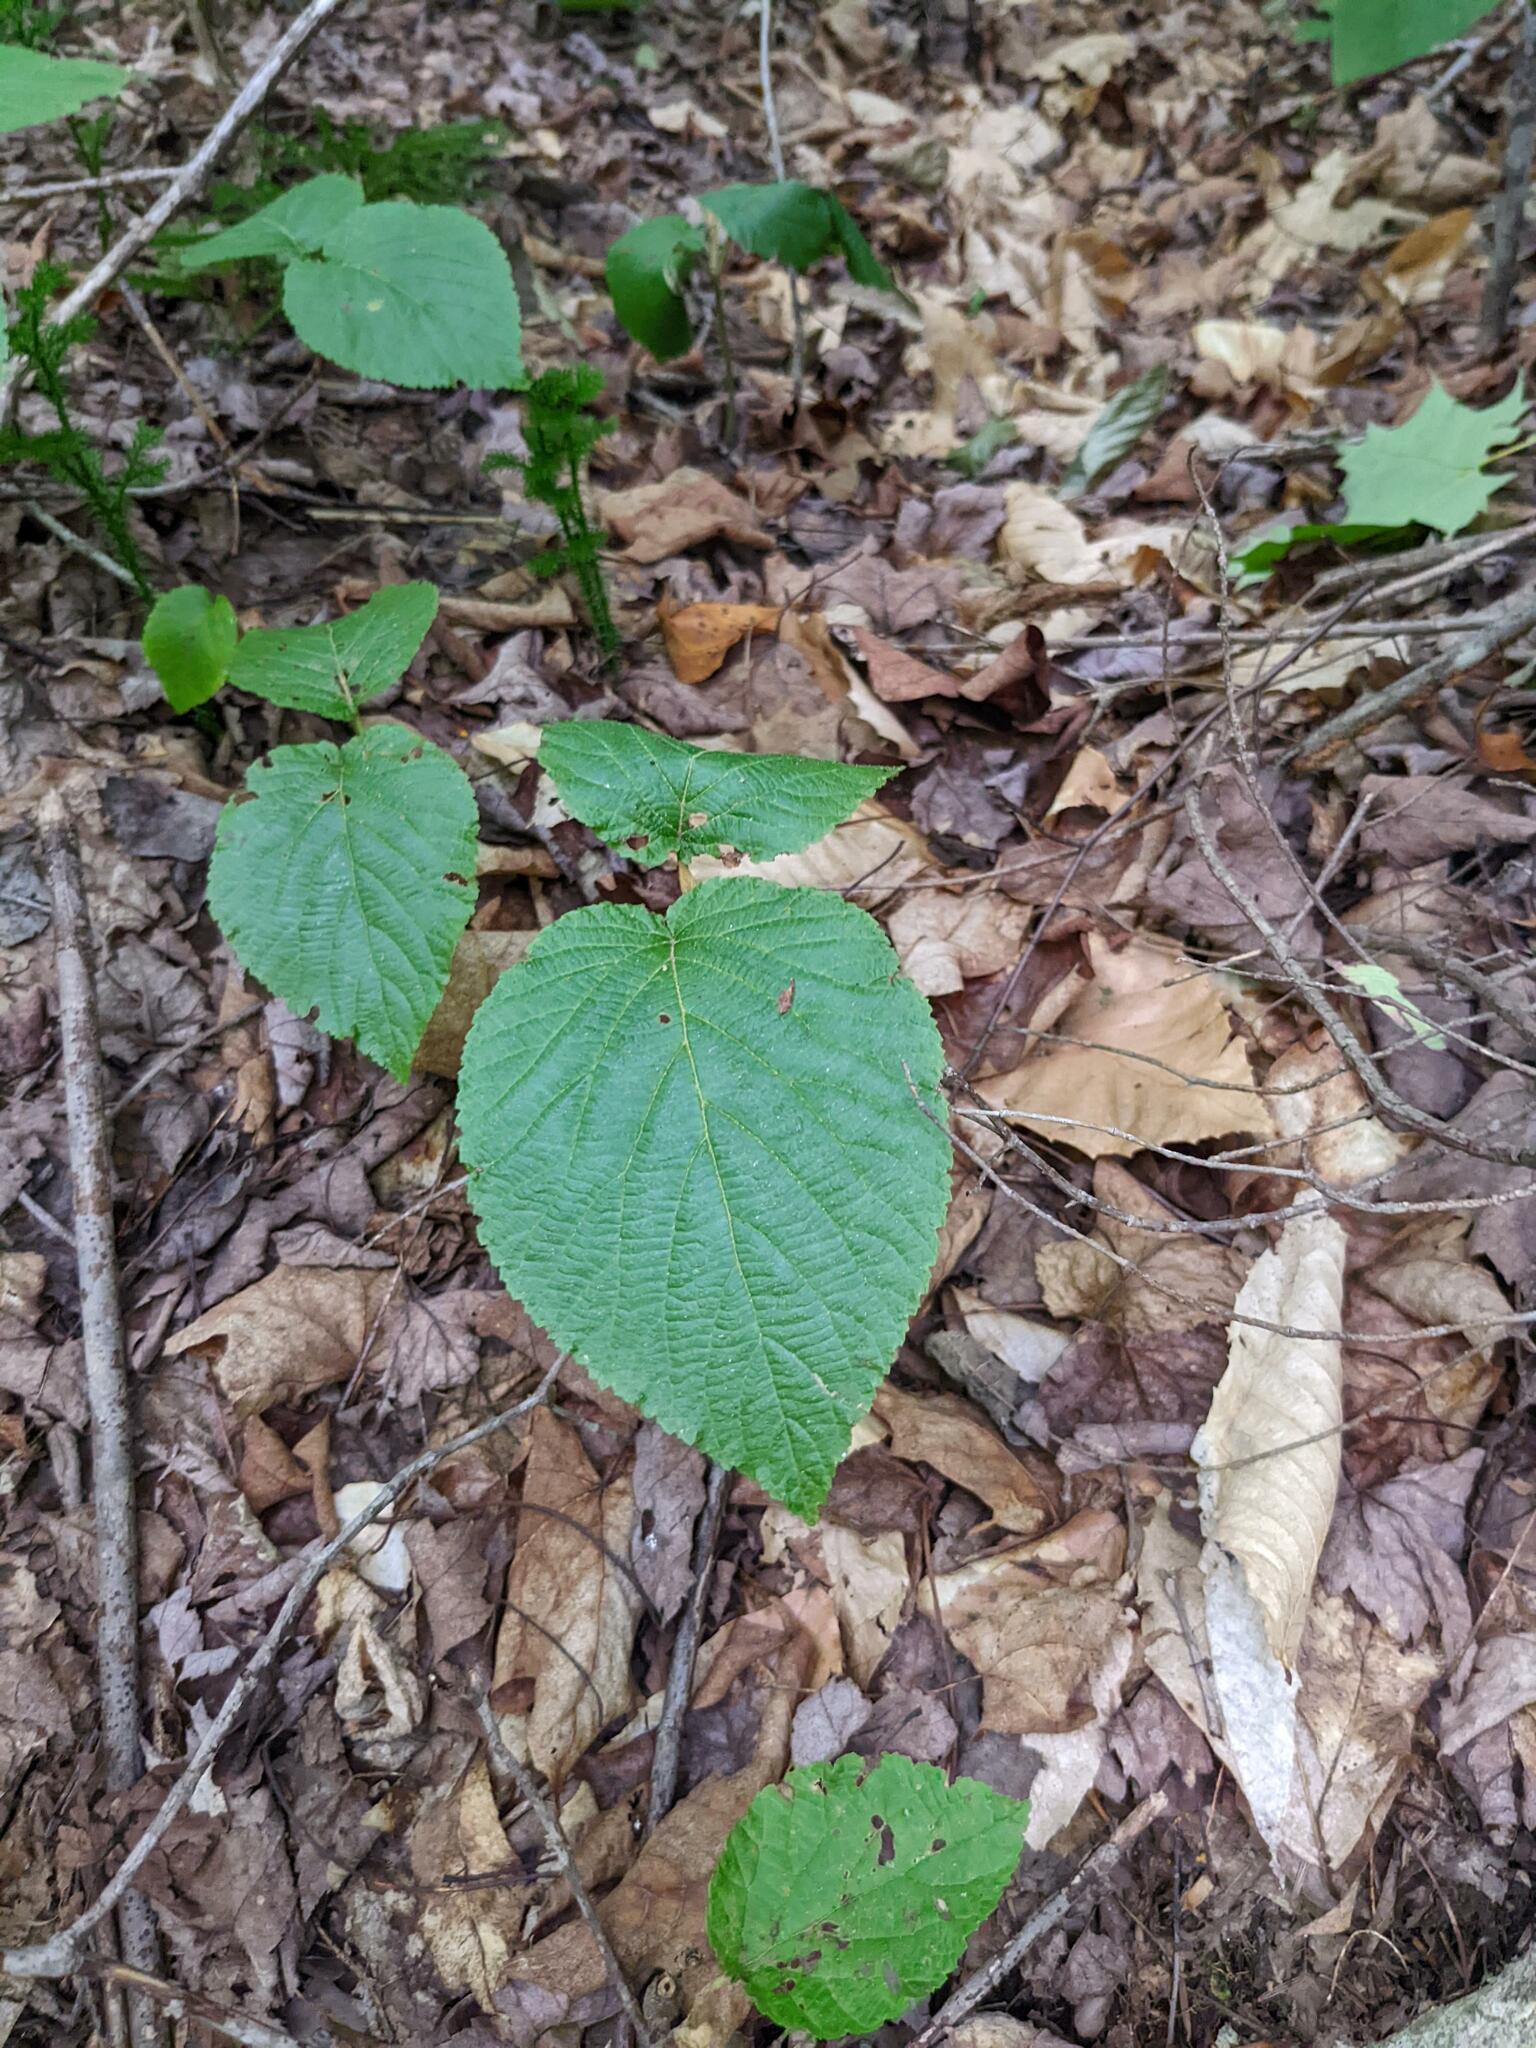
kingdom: Plantae
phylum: Tracheophyta
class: Magnoliopsida
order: Dipsacales
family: Viburnaceae
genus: Viburnum
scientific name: Viburnum lantanoides
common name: Hobblebush
